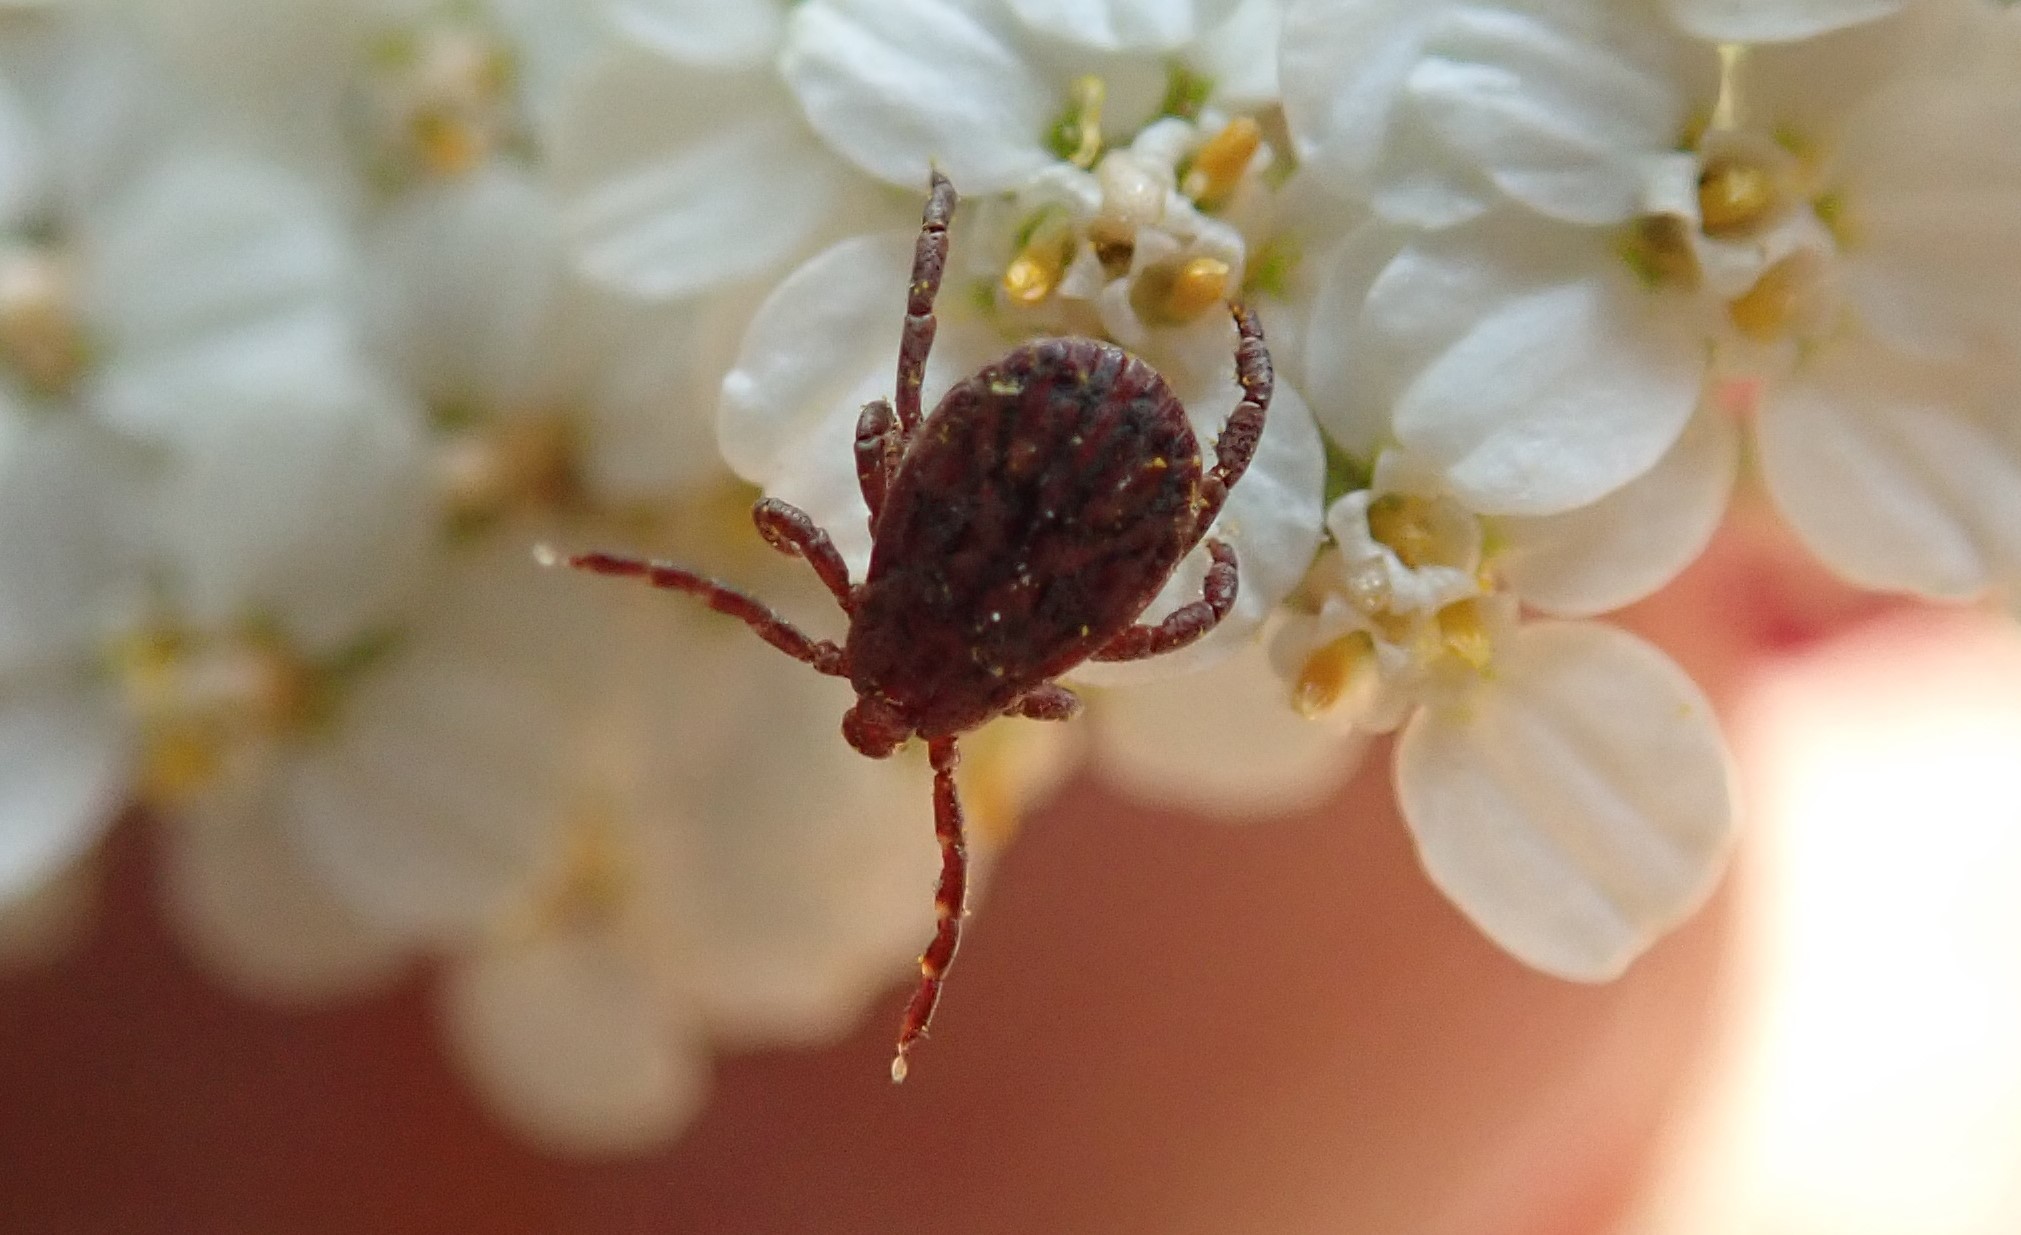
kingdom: Animalia
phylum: Arthropoda
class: Arachnida
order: Ixodida
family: Ixodidae
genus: Dermacentor
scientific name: Dermacentor occidentalis
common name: Net tick
